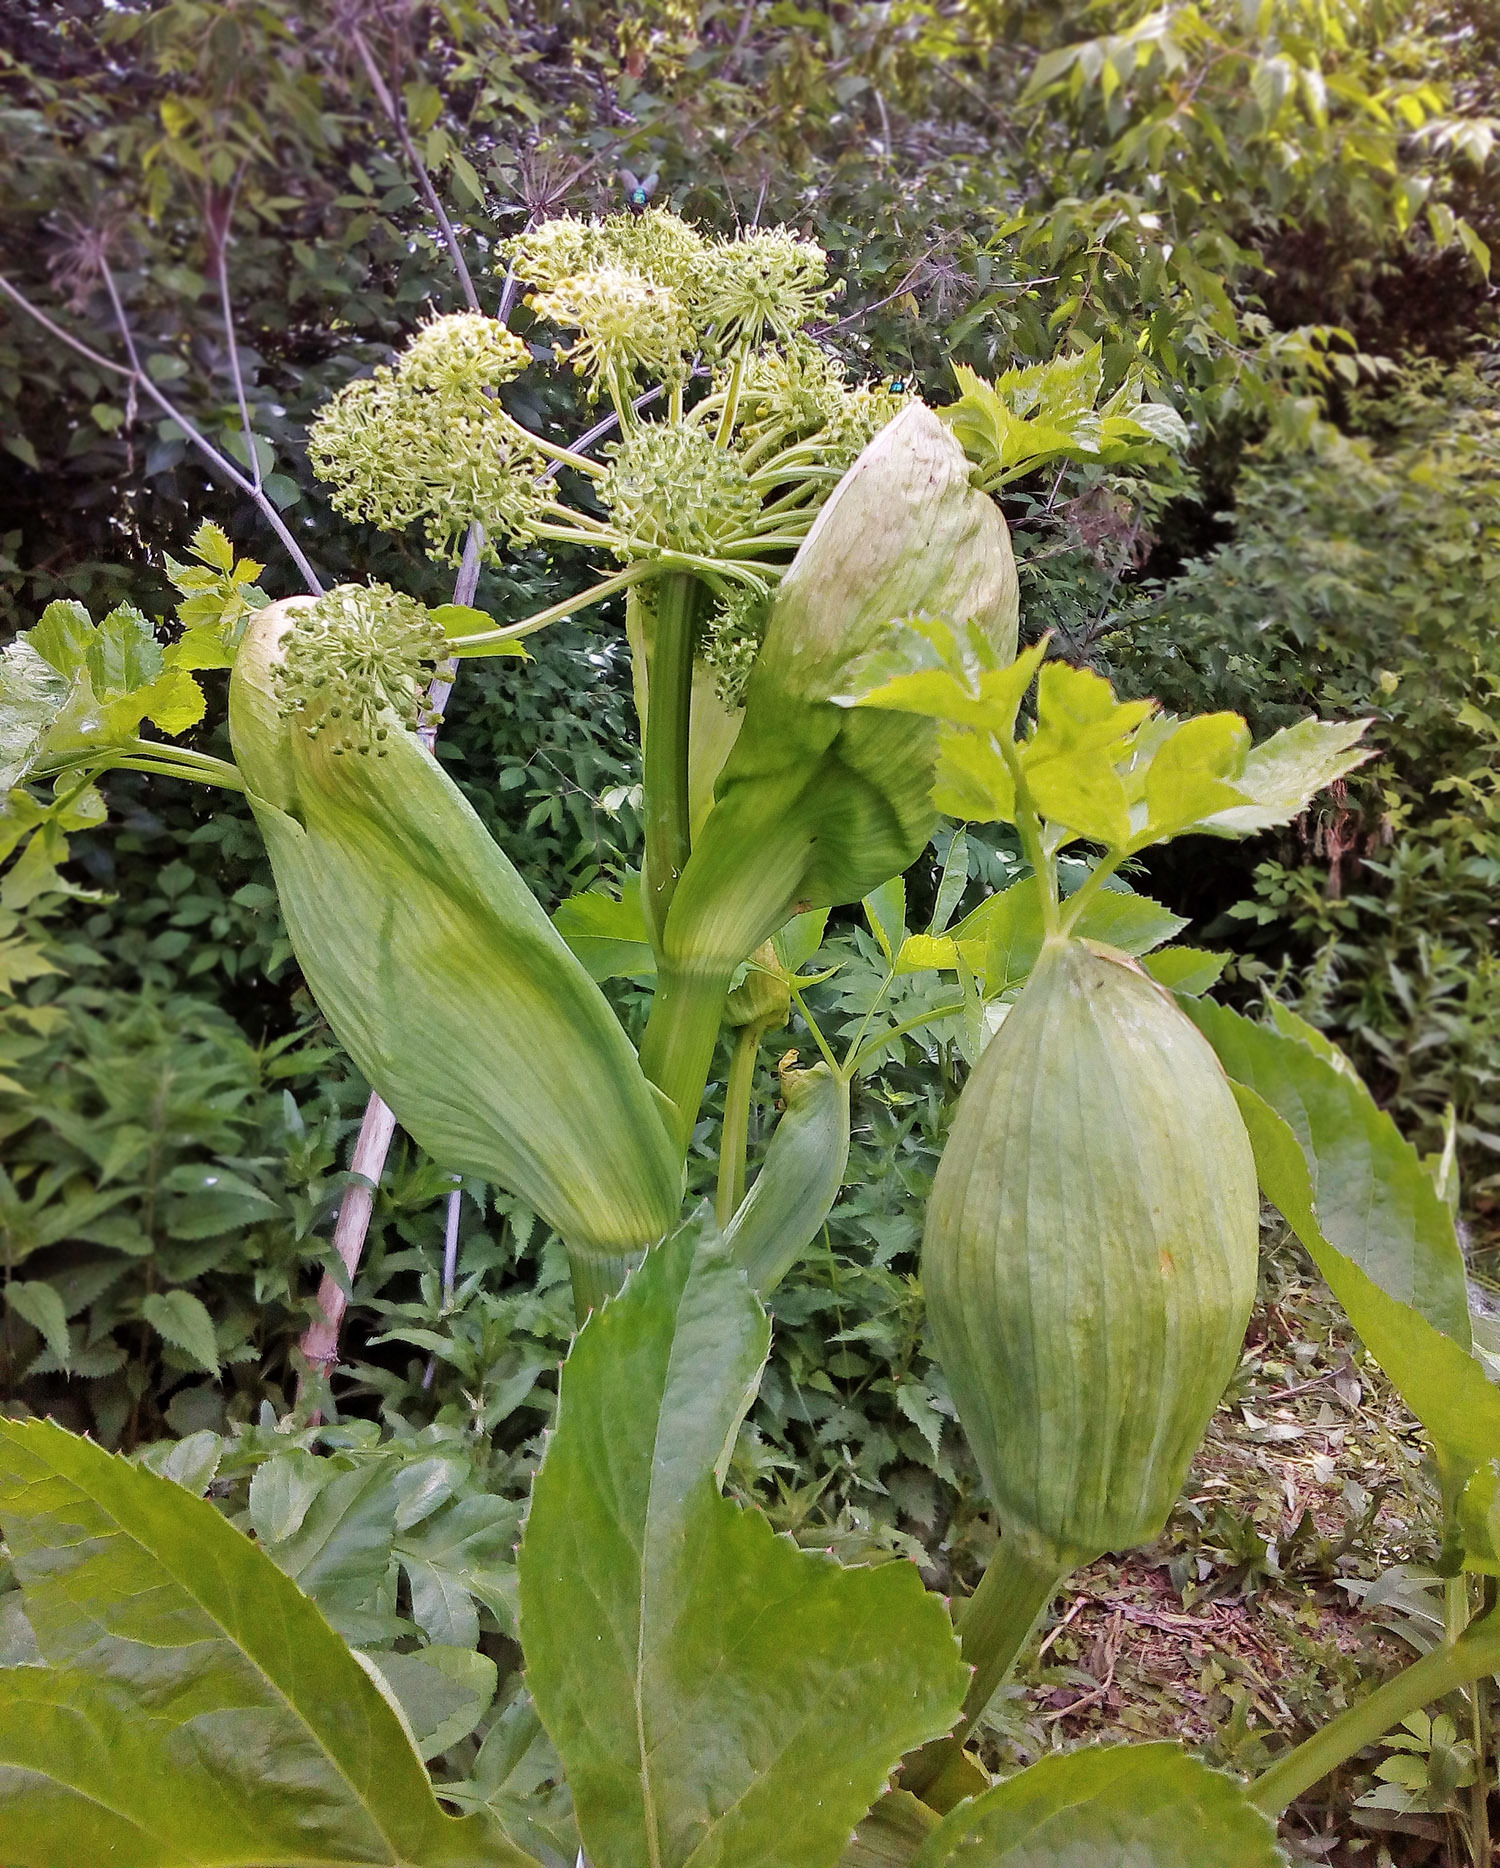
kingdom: Plantae
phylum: Tracheophyta
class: Magnoliopsida
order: Apiales
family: Apiaceae
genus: Angelica
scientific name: Angelica decurrens
